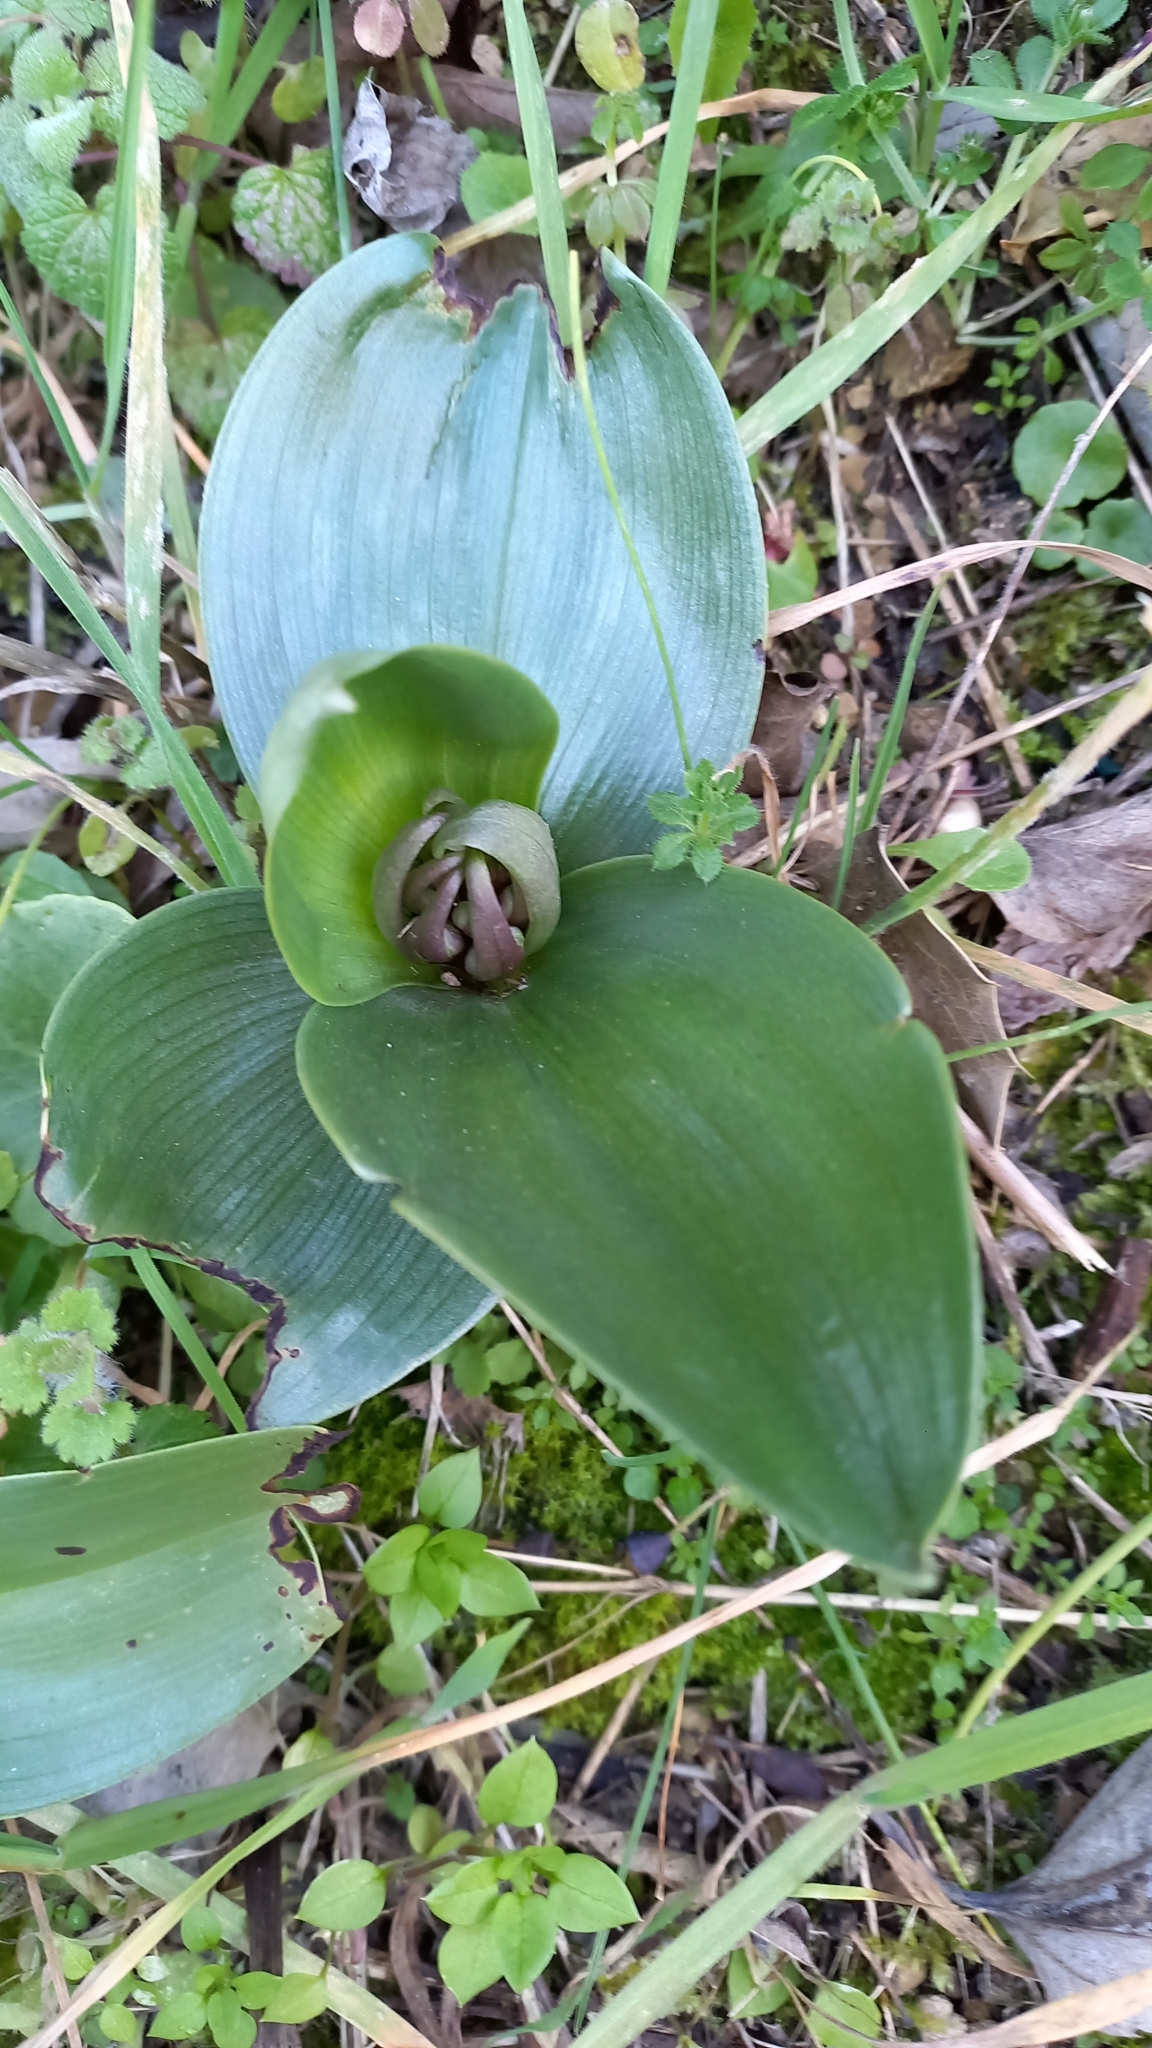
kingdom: Plantae
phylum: Tracheophyta
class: Liliopsida
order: Asparagales
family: Orchidaceae
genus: Himantoglossum
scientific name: Himantoglossum robertianum
